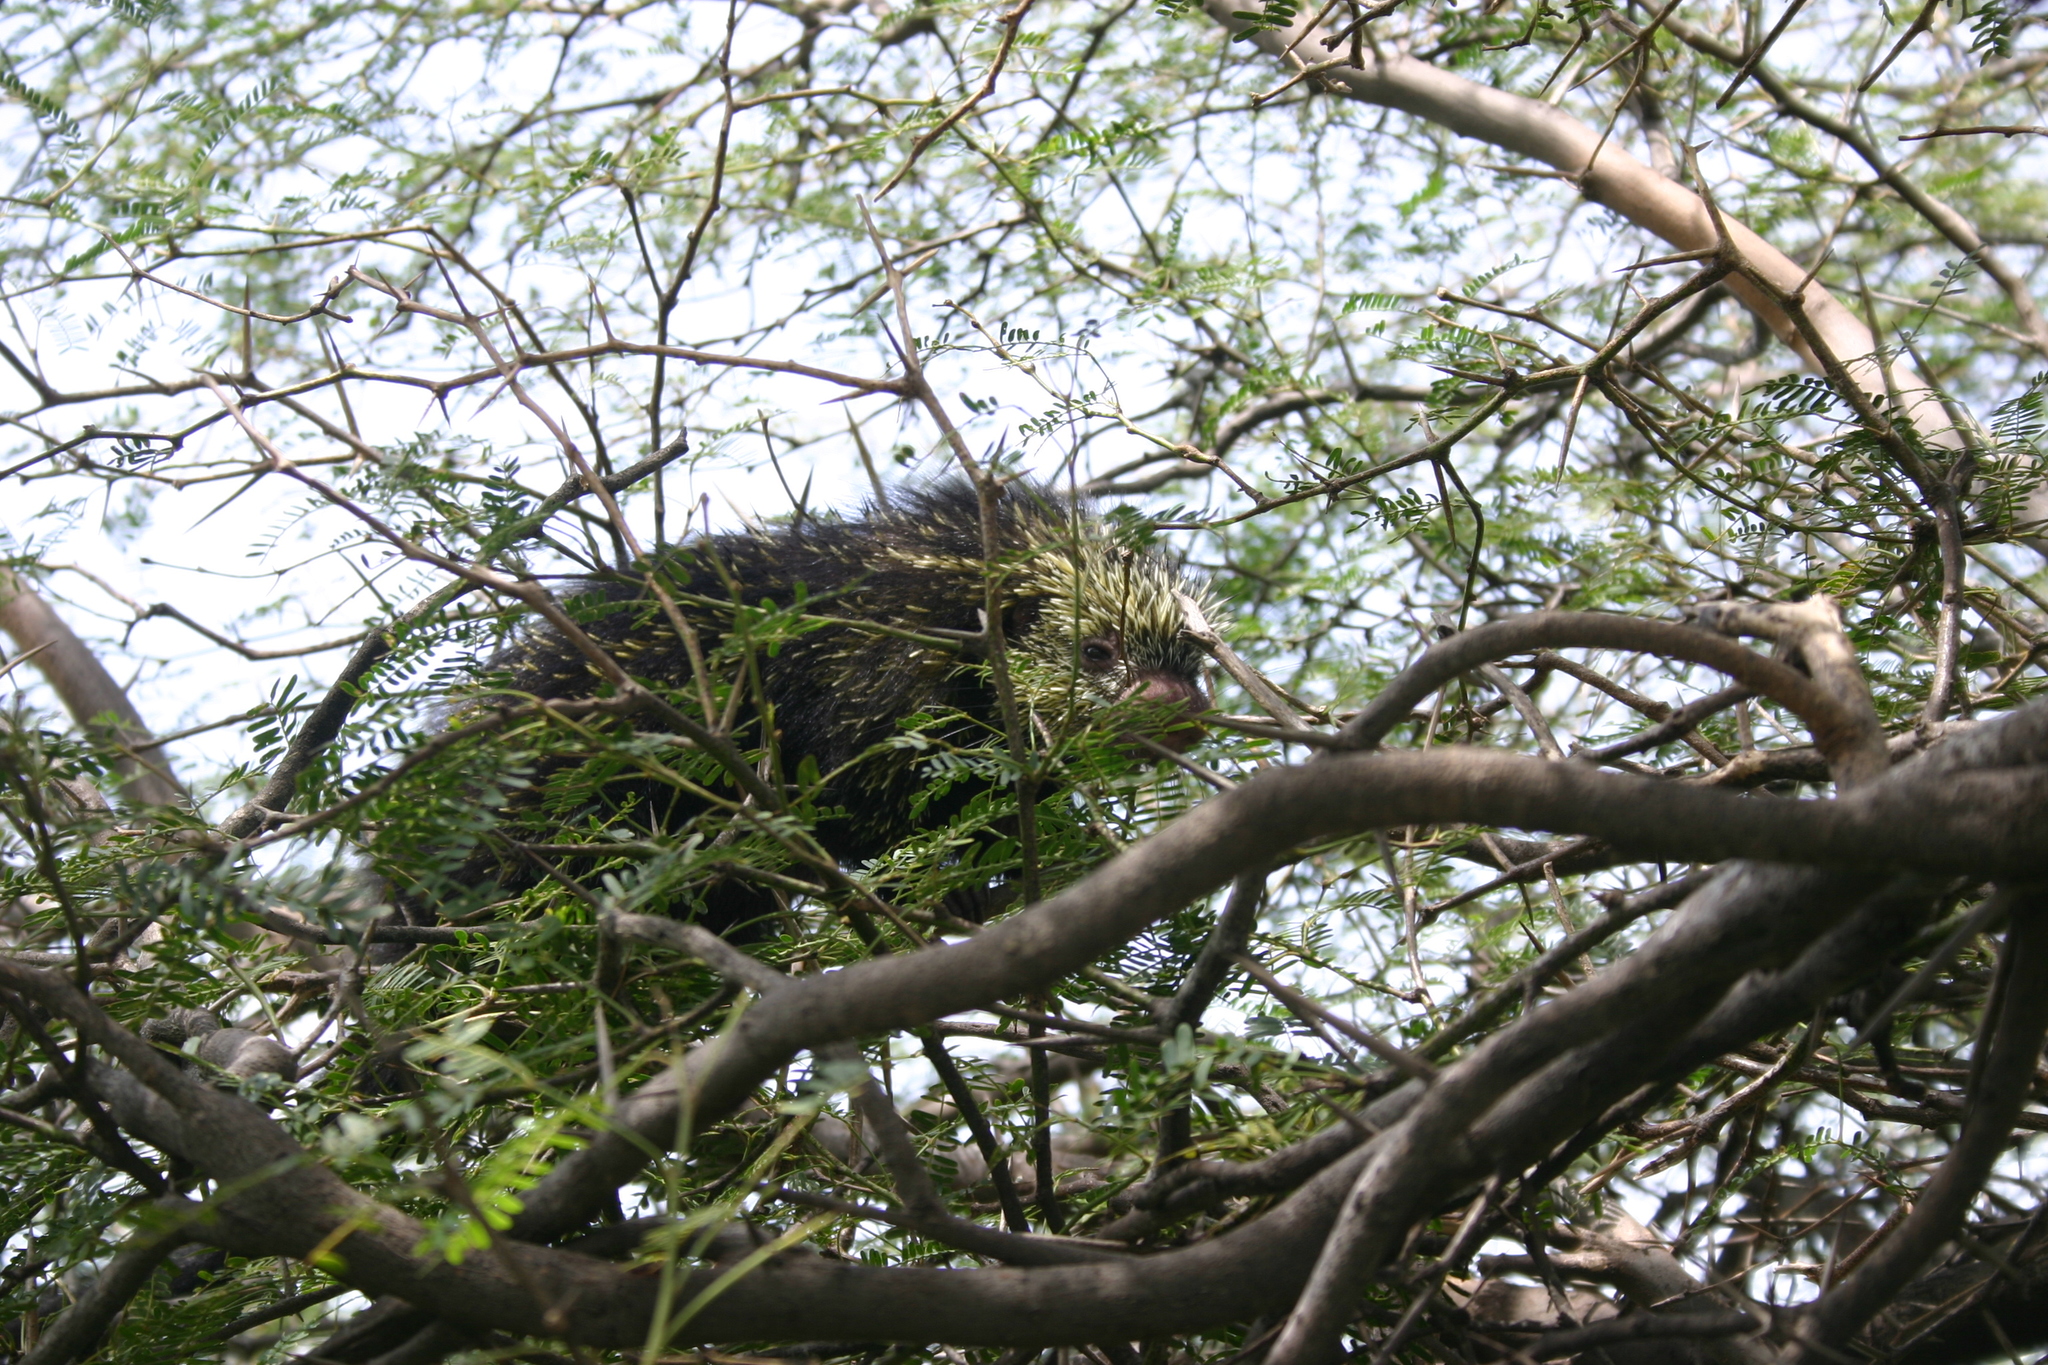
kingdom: Animalia
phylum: Chordata
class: Mammalia
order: Rodentia
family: Erethizontidae
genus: Sphiggurus
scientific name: Sphiggurus mexicanus
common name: Mexican hairy dwarf porcupine
